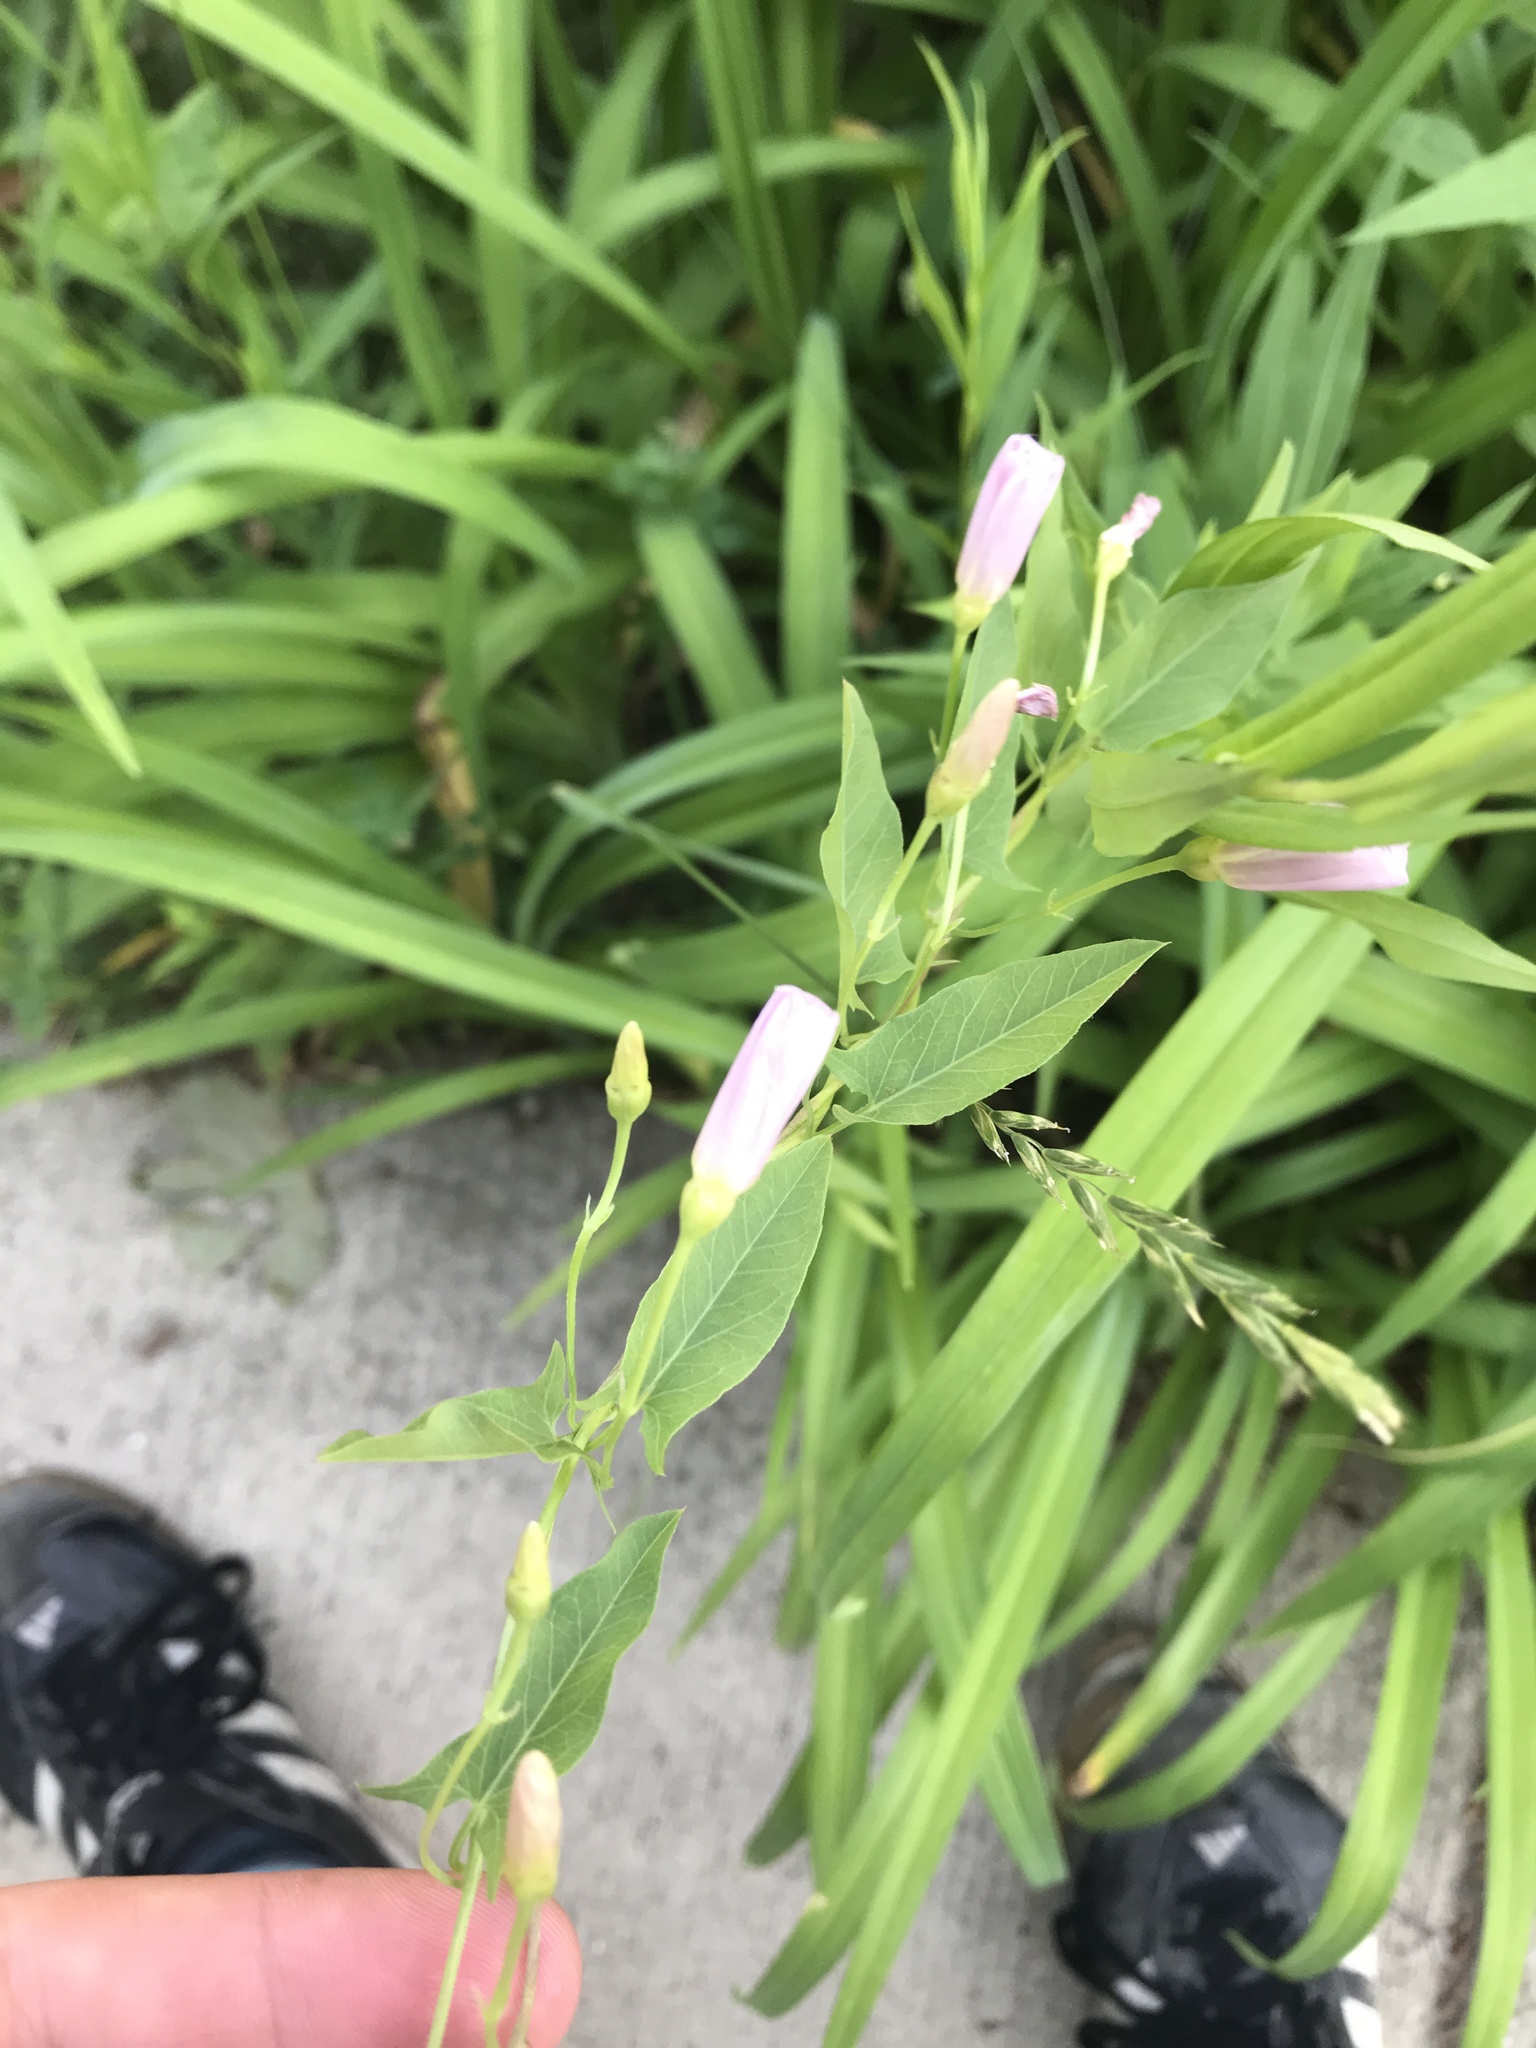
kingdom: Plantae
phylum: Tracheophyta
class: Magnoliopsida
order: Solanales
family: Convolvulaceae
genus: Convolvulus
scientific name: Convolvulus arvensis
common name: Field bindweed
